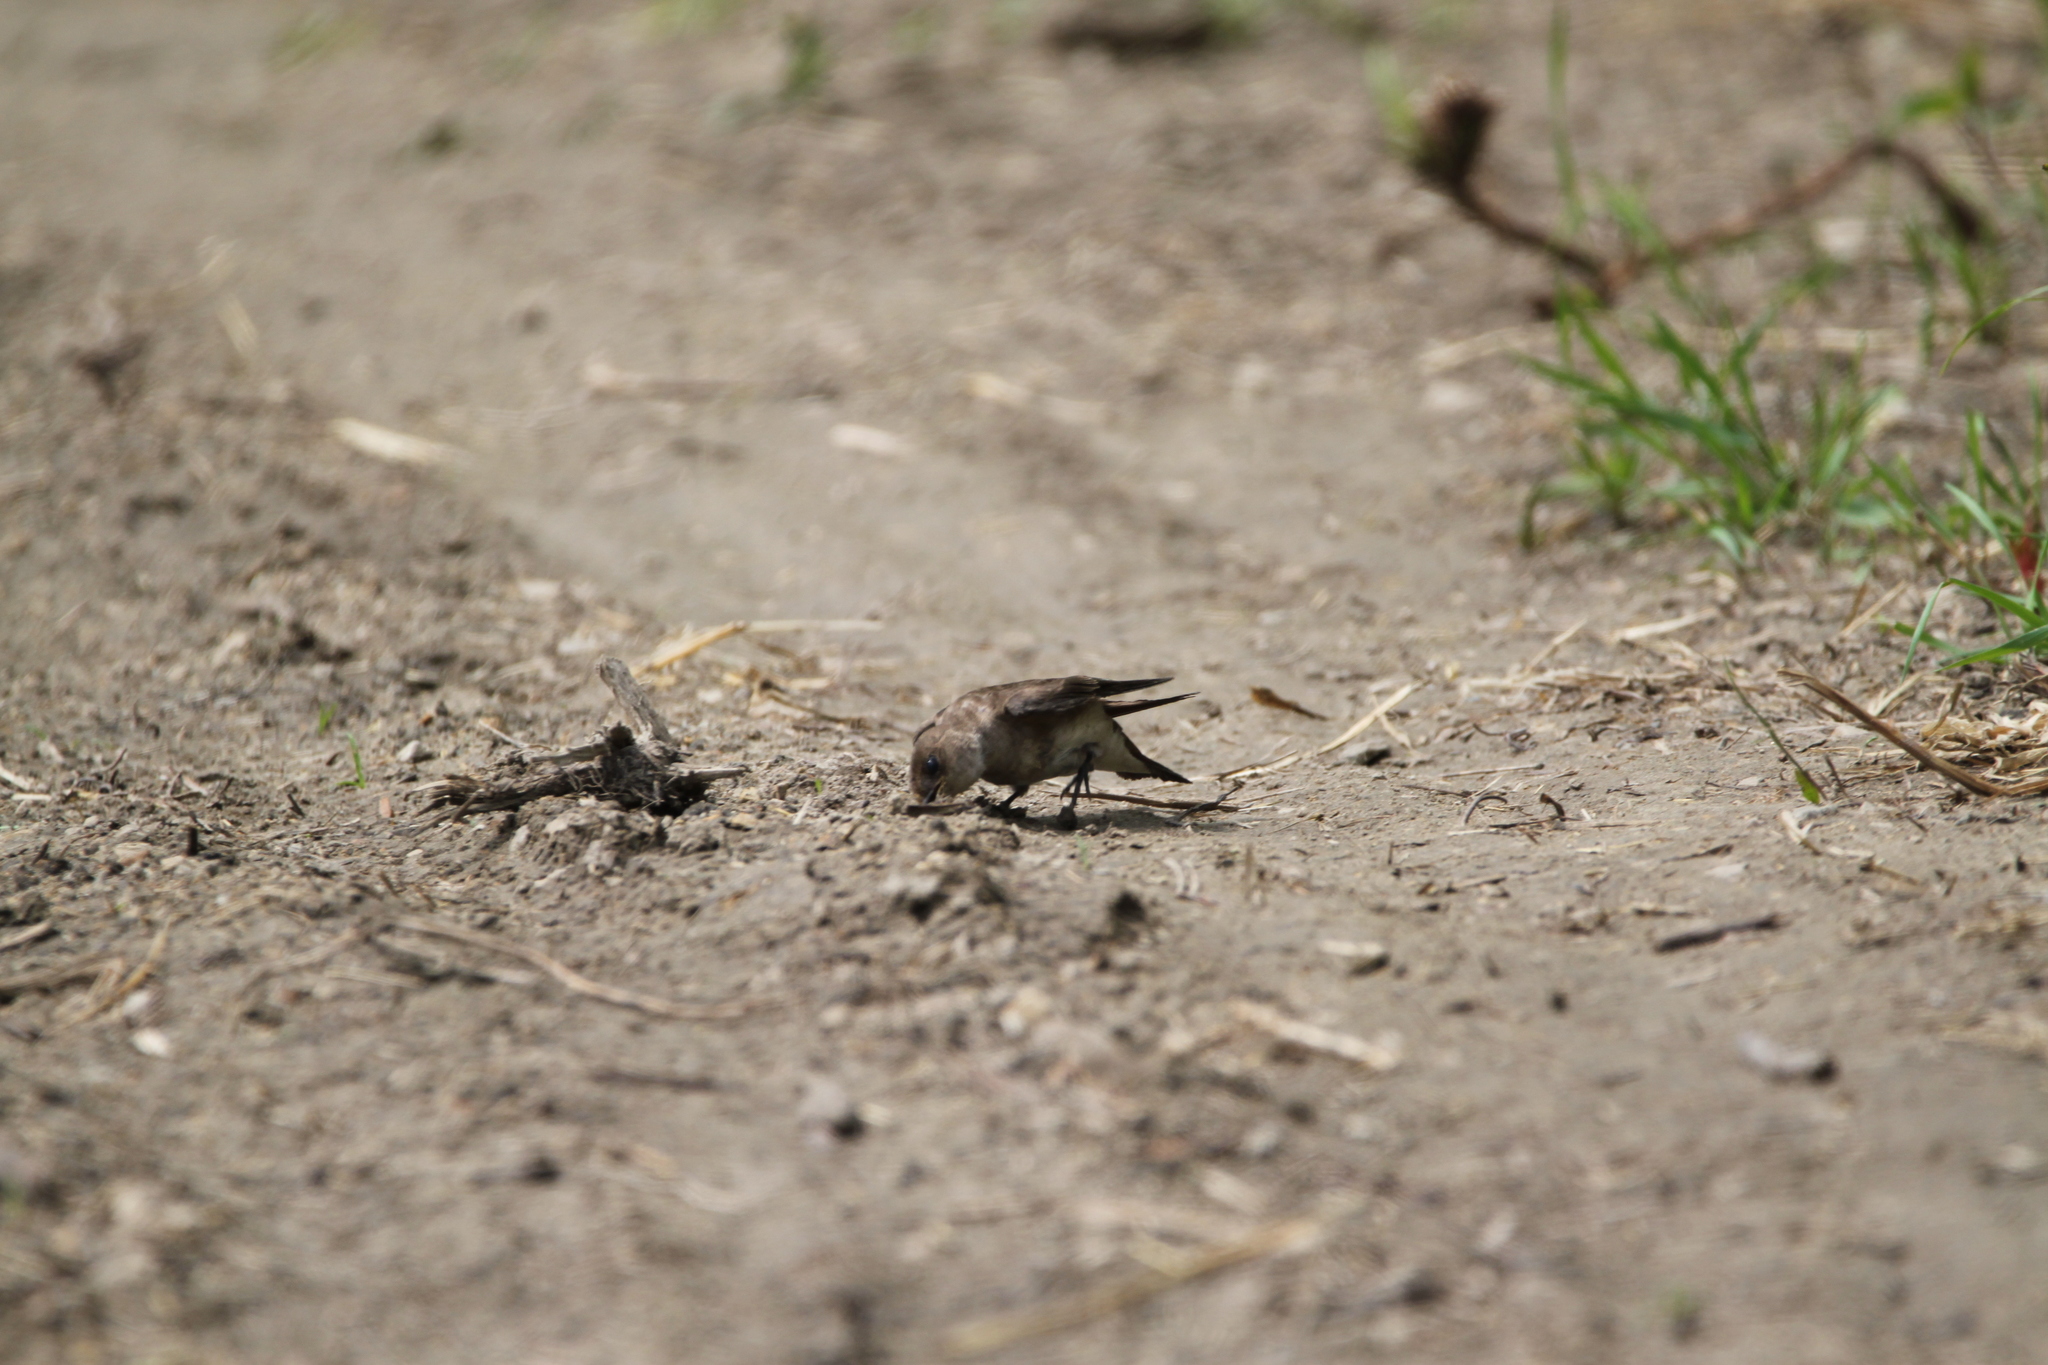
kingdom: Animalia
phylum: Chordata
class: Aves
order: Passeriformes
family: Hirundinidae
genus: Stelgidopteryx
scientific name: Stelgidopteryx serripennis
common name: Northern rough-winged swallow
